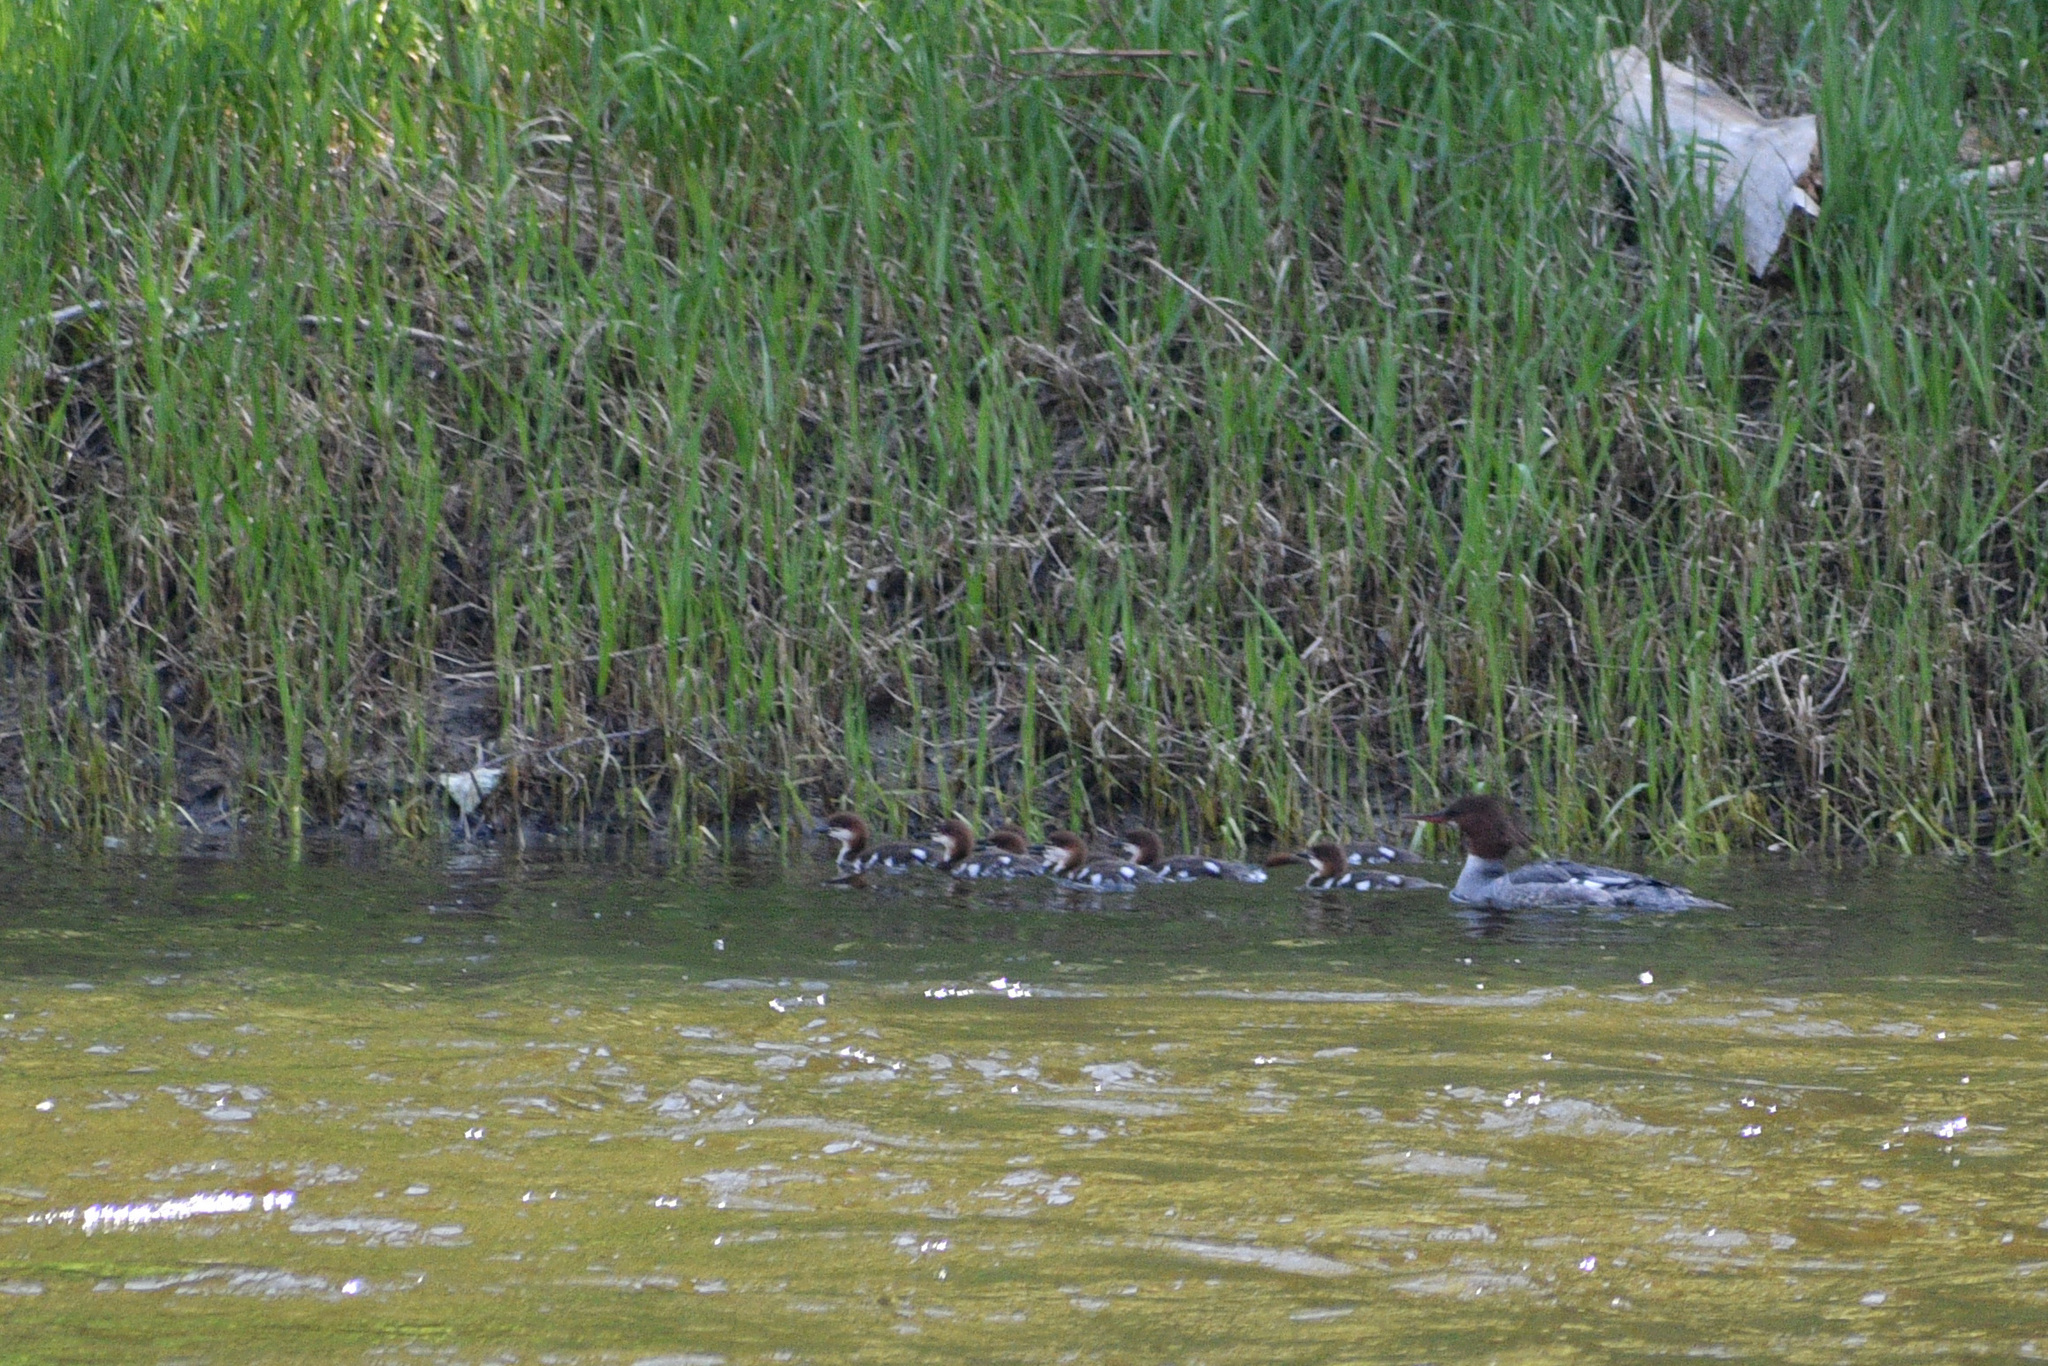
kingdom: Animalia
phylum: Chordata
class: Aves
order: Anseriformes
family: Anatidae
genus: Mergus
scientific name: Mergus merganser
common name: Common merganser
